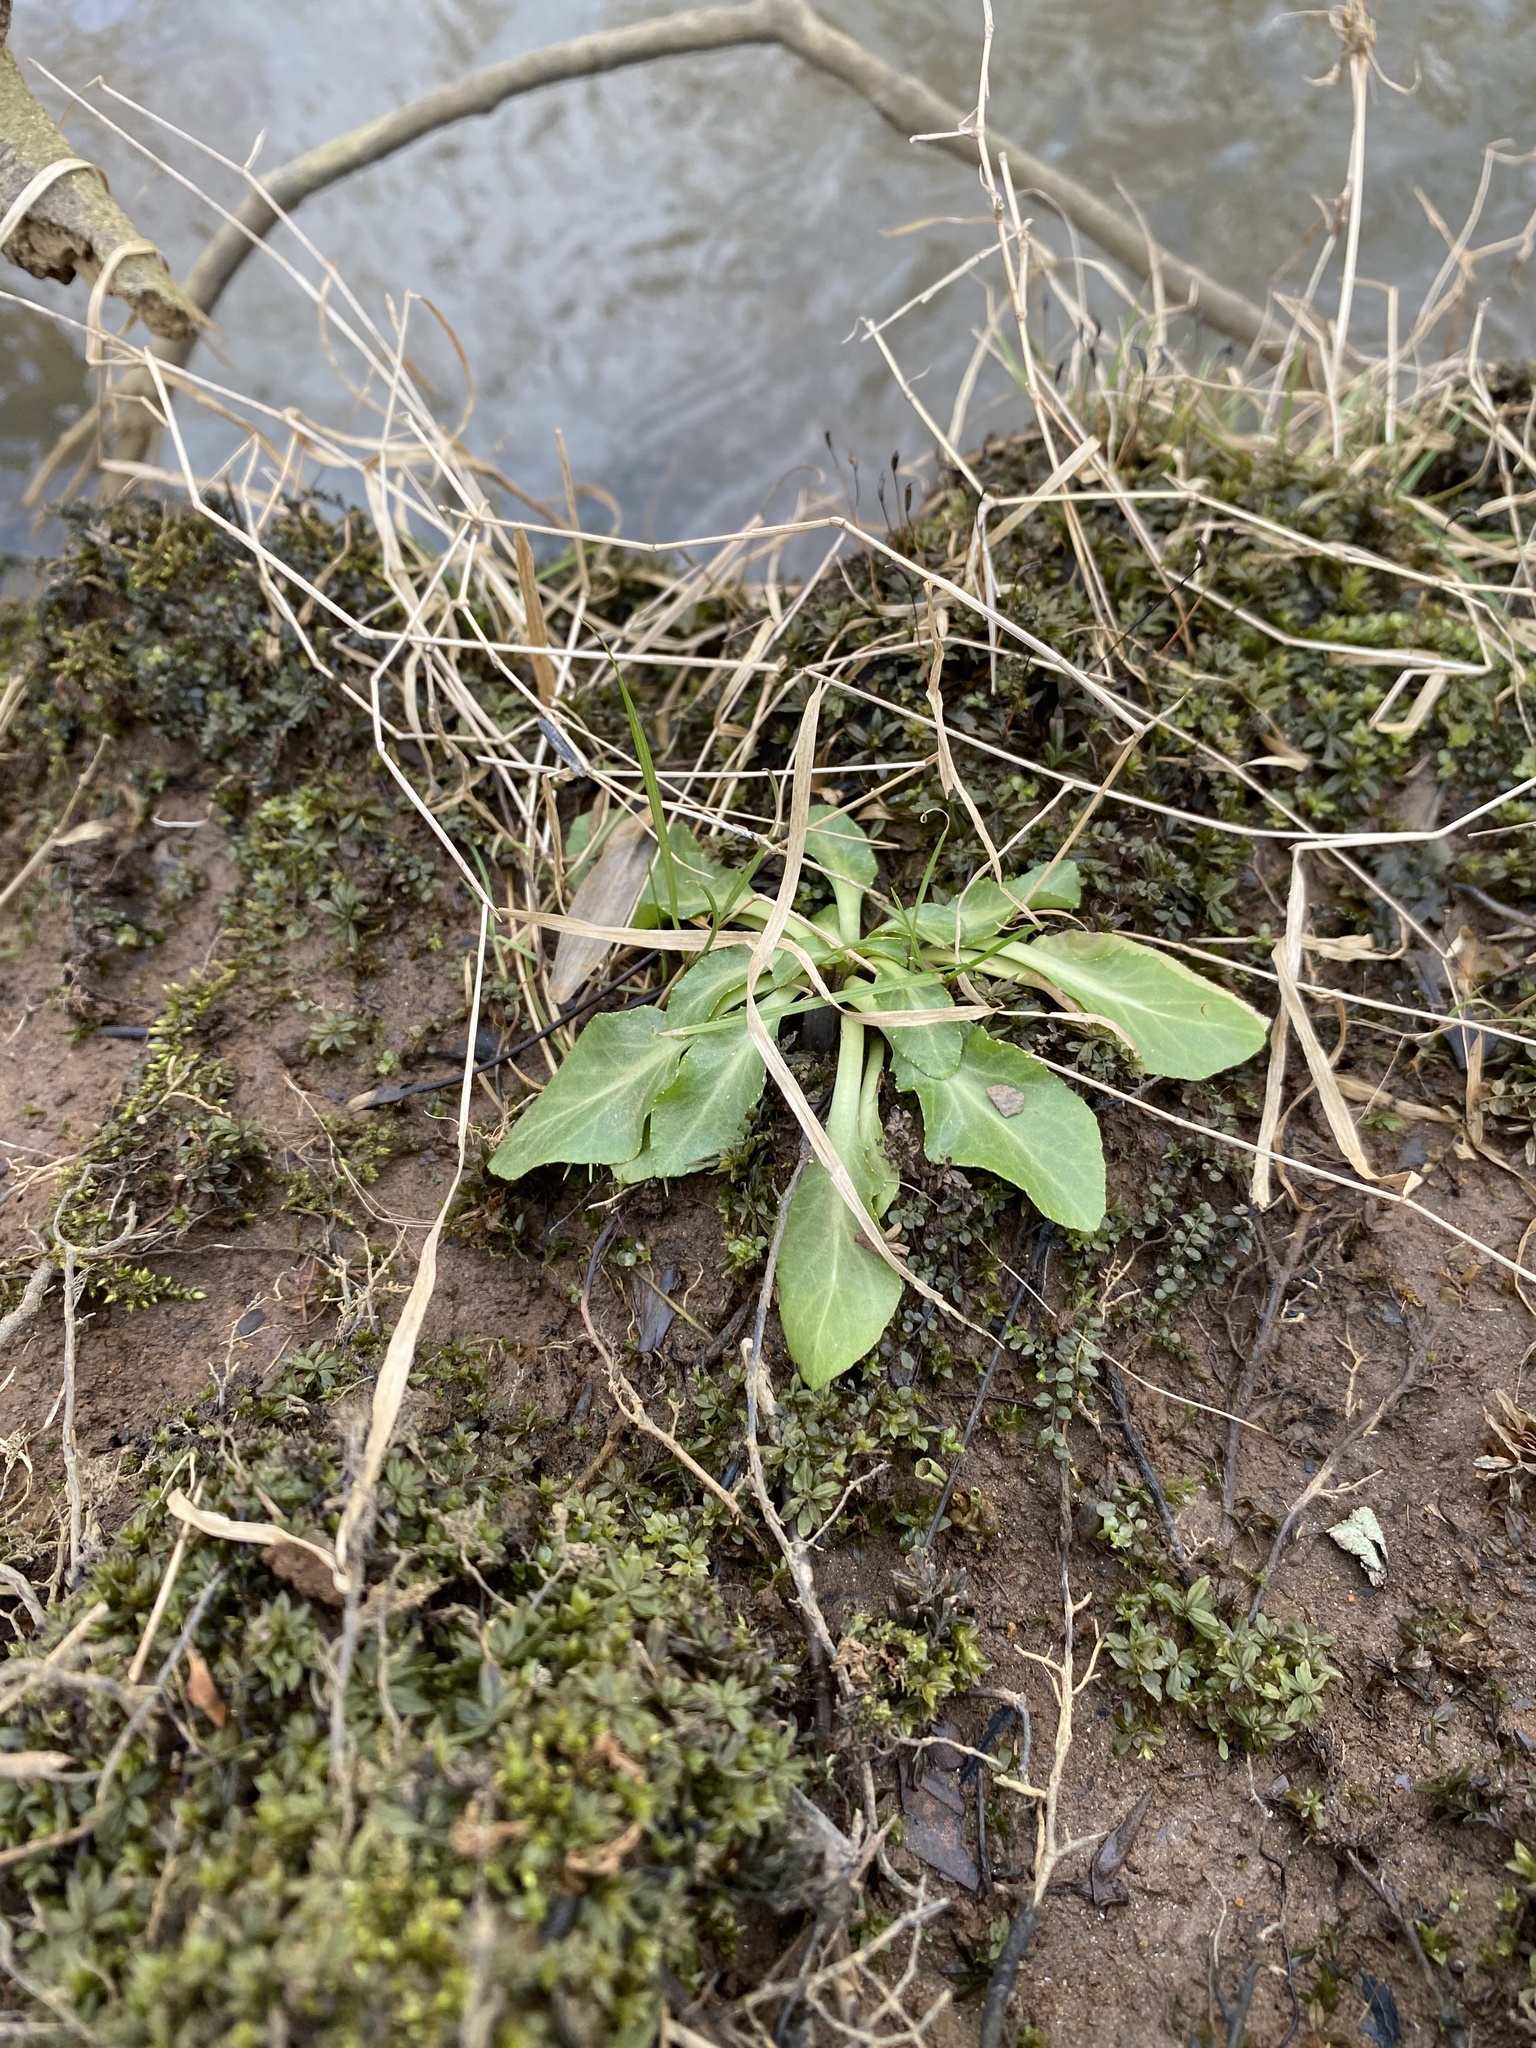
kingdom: Plantae
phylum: Tracheophyta
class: Magnoliopsida
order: Asterales
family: Campanulaceae
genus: Lobelia
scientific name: Lobelia cardinalis
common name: Cardinal flower
